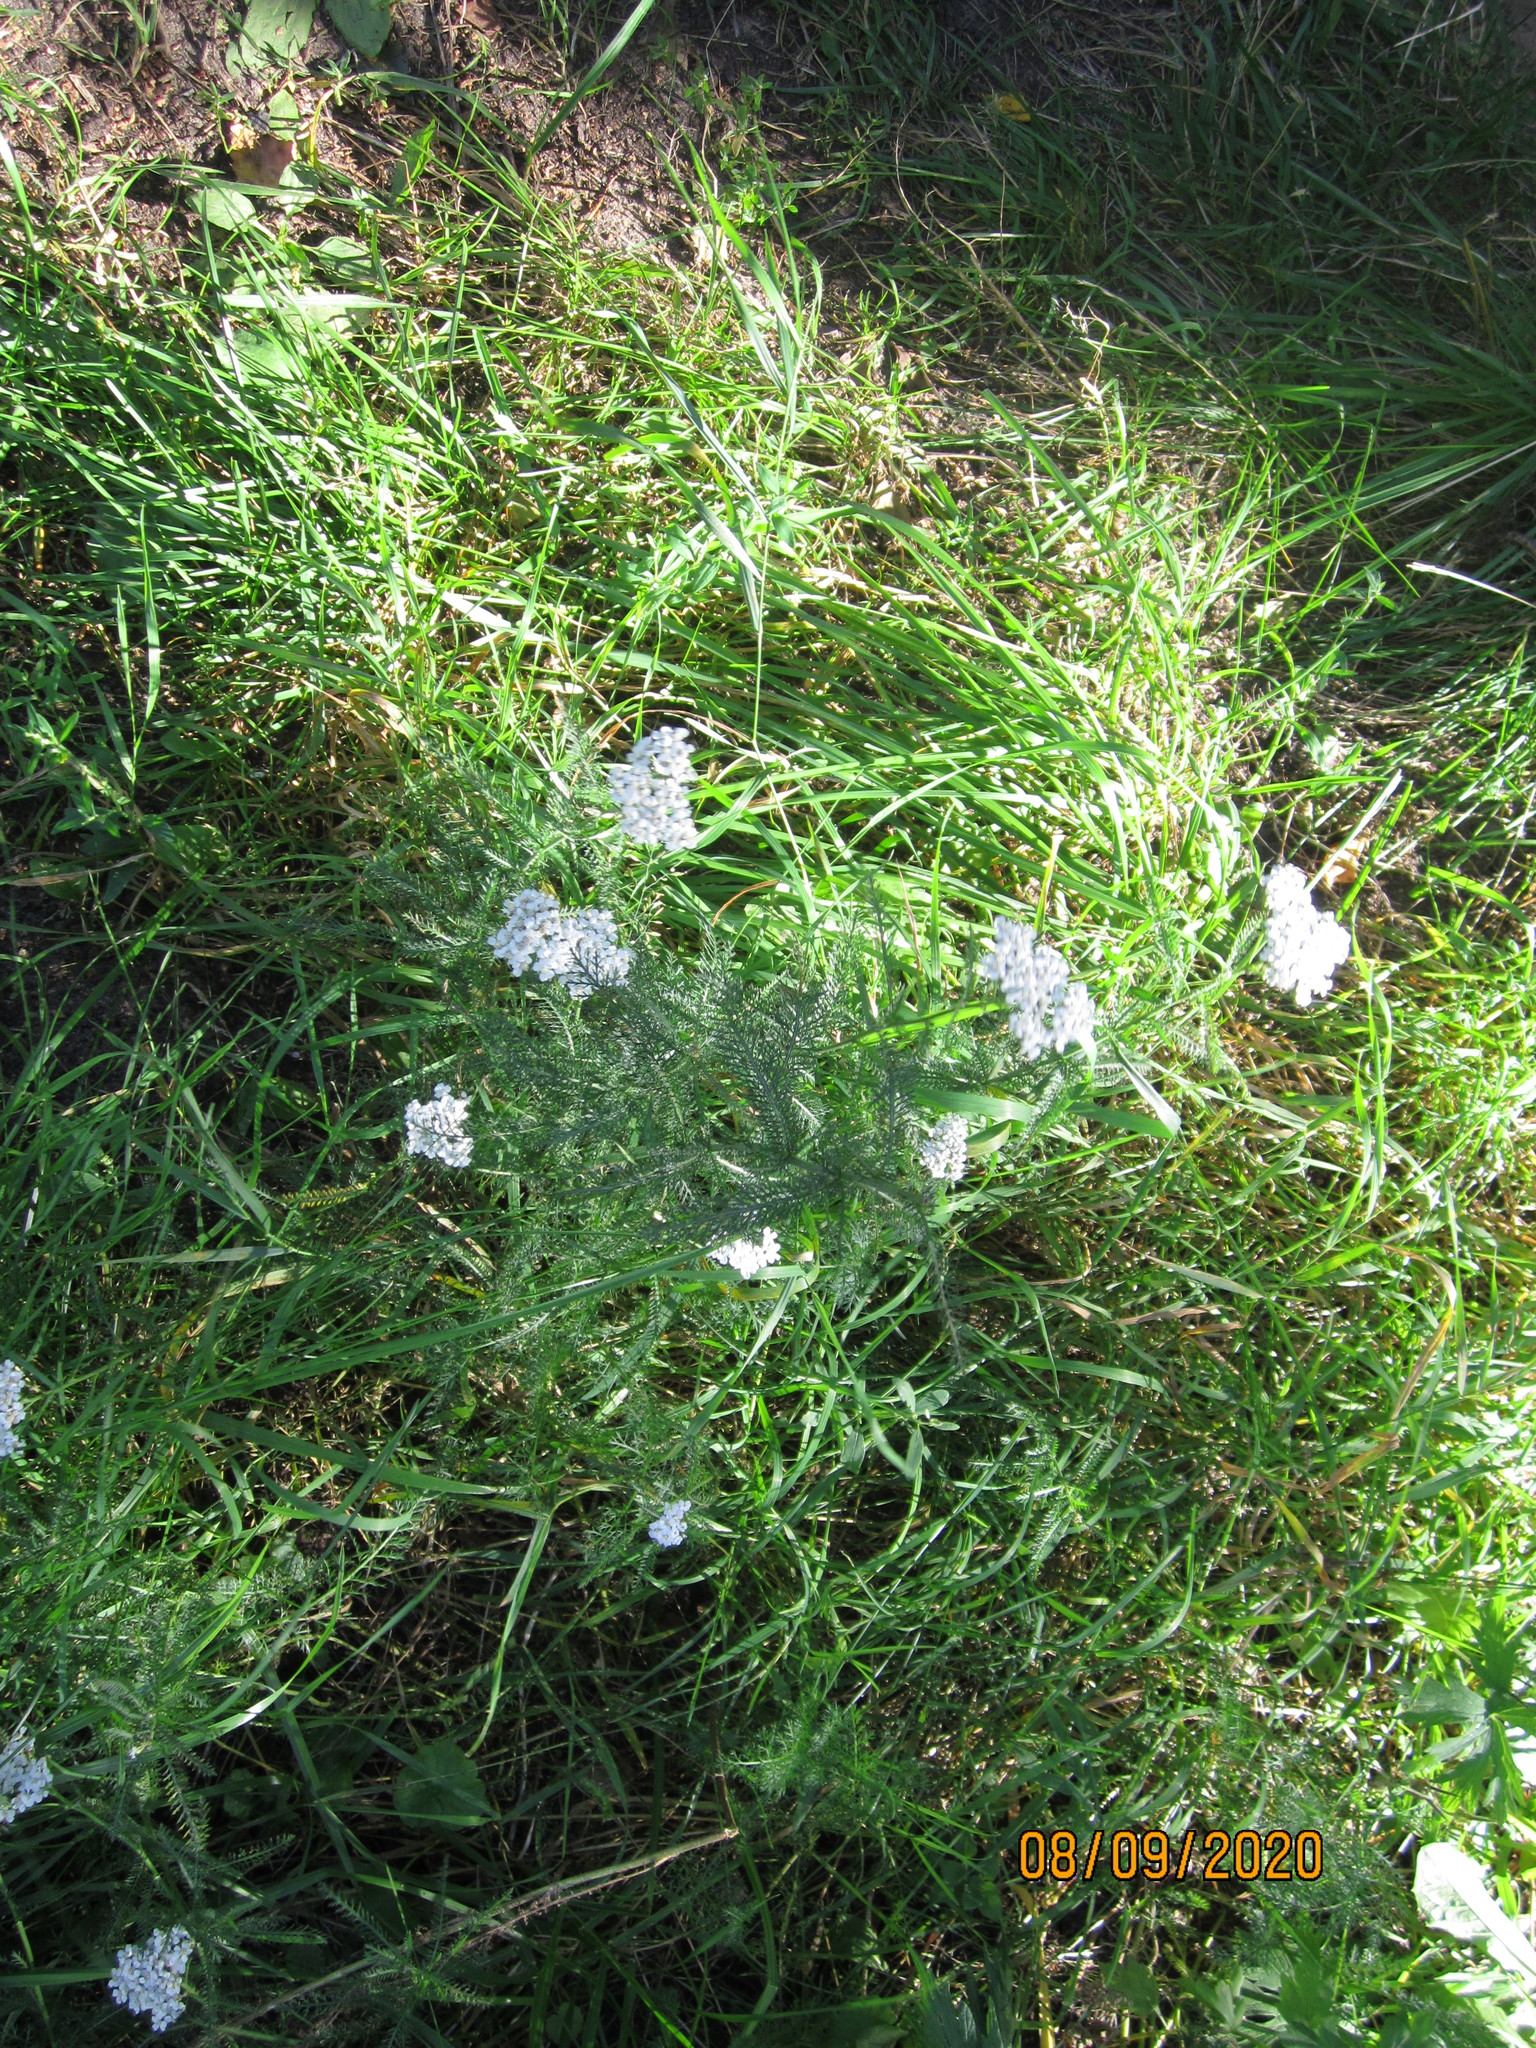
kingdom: Plantae
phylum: Tracheophyta
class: Magnoliopsida
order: Asterales
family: Asteraceae
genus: Achillea
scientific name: Achillea millefolium
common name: Yarrow
